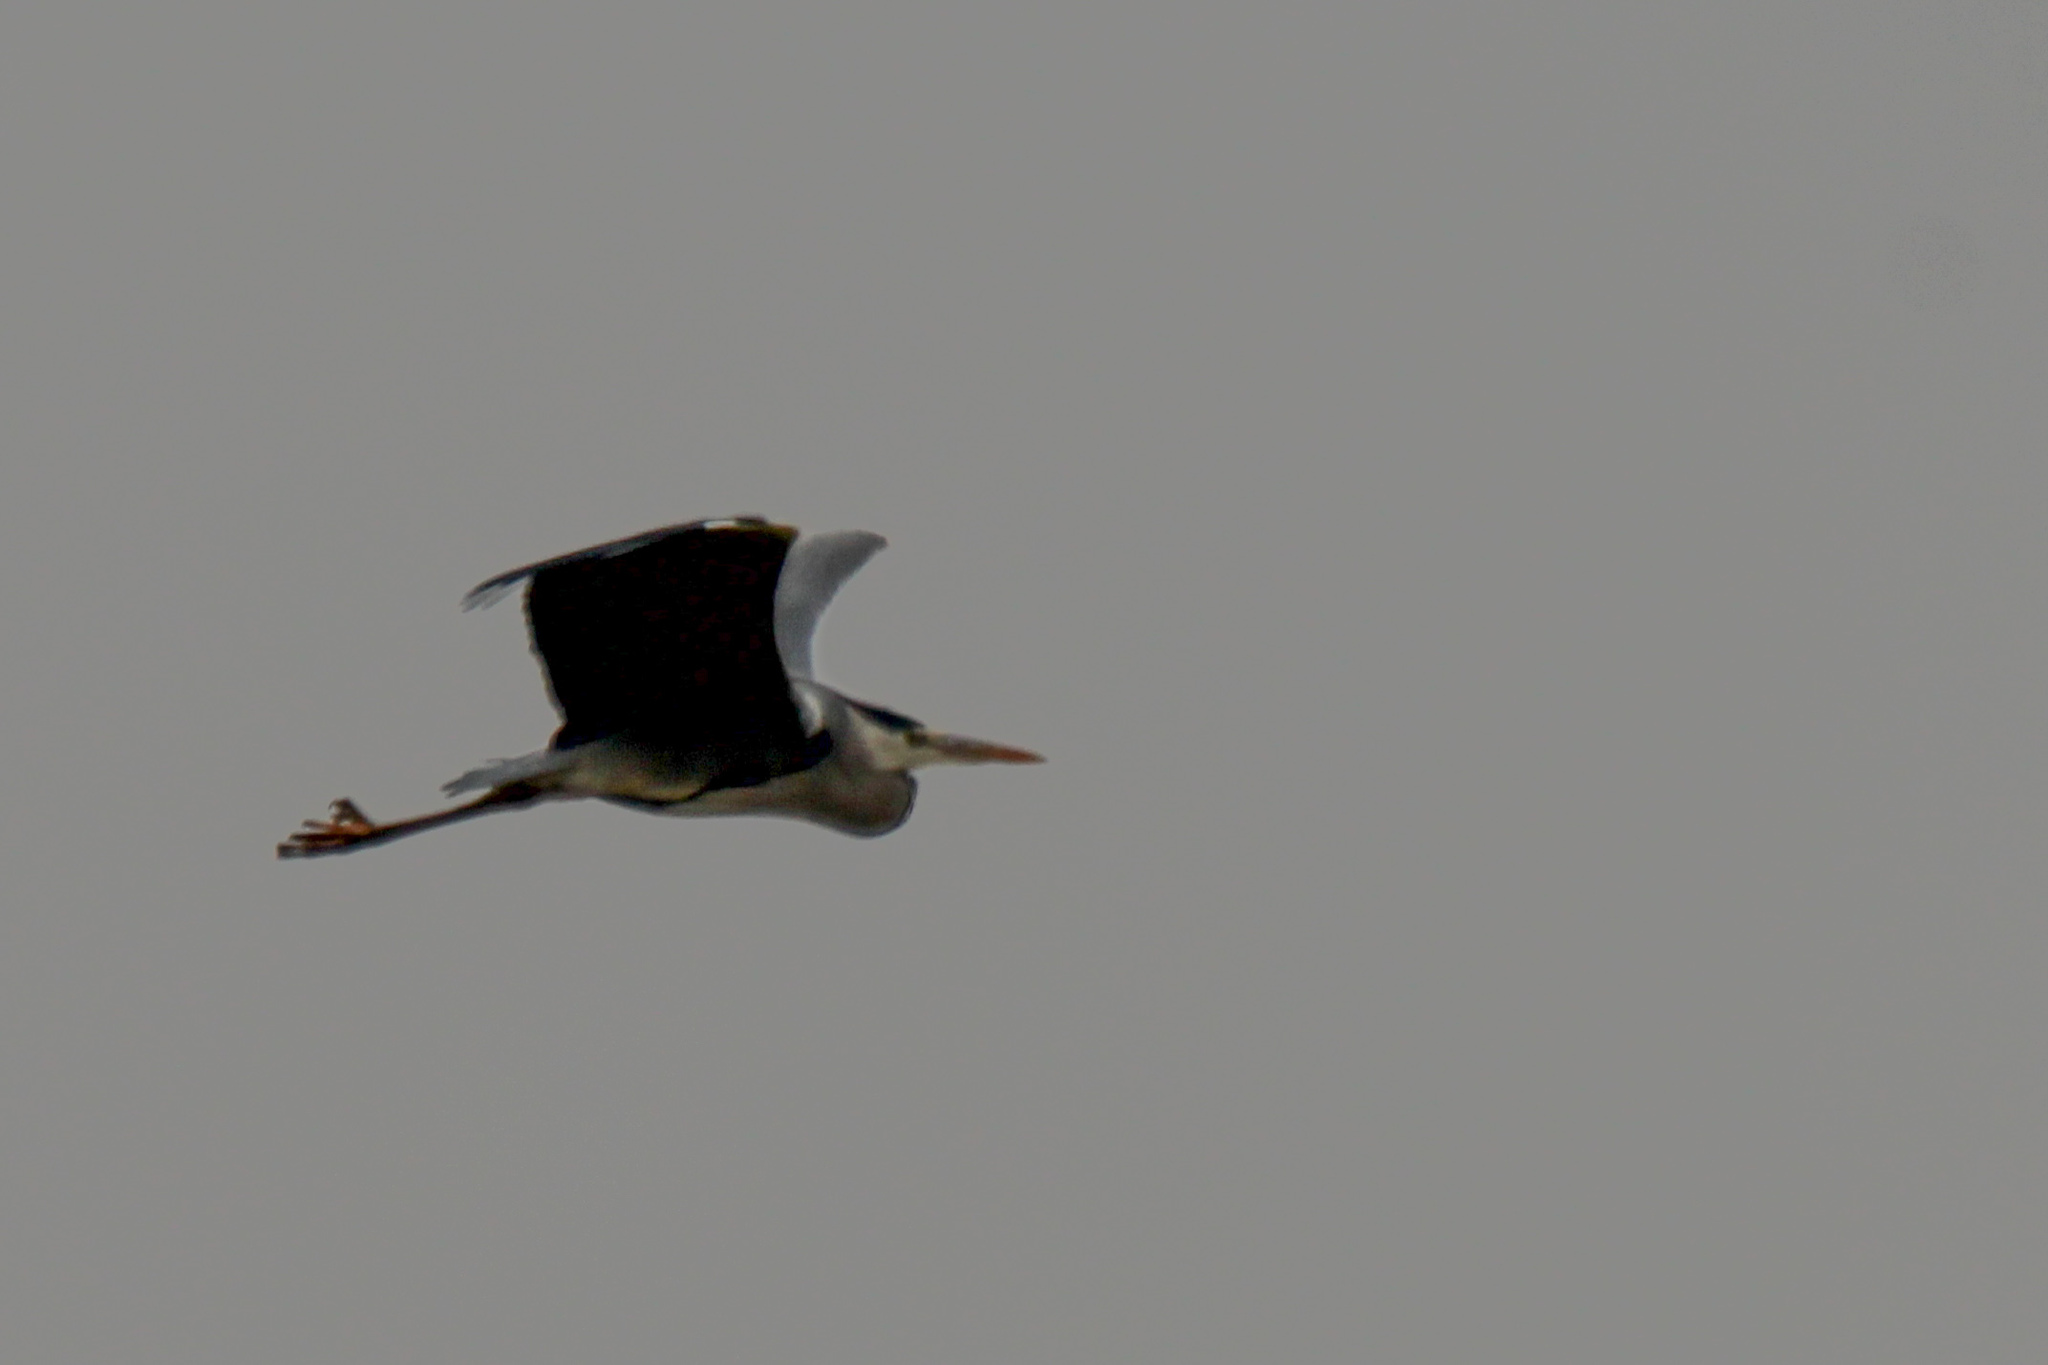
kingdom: Animalia
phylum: Chordata
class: Aves
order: Pelecaniformes
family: Ardeidae
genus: Ardea
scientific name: Ardea cinerea
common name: Grey heron
